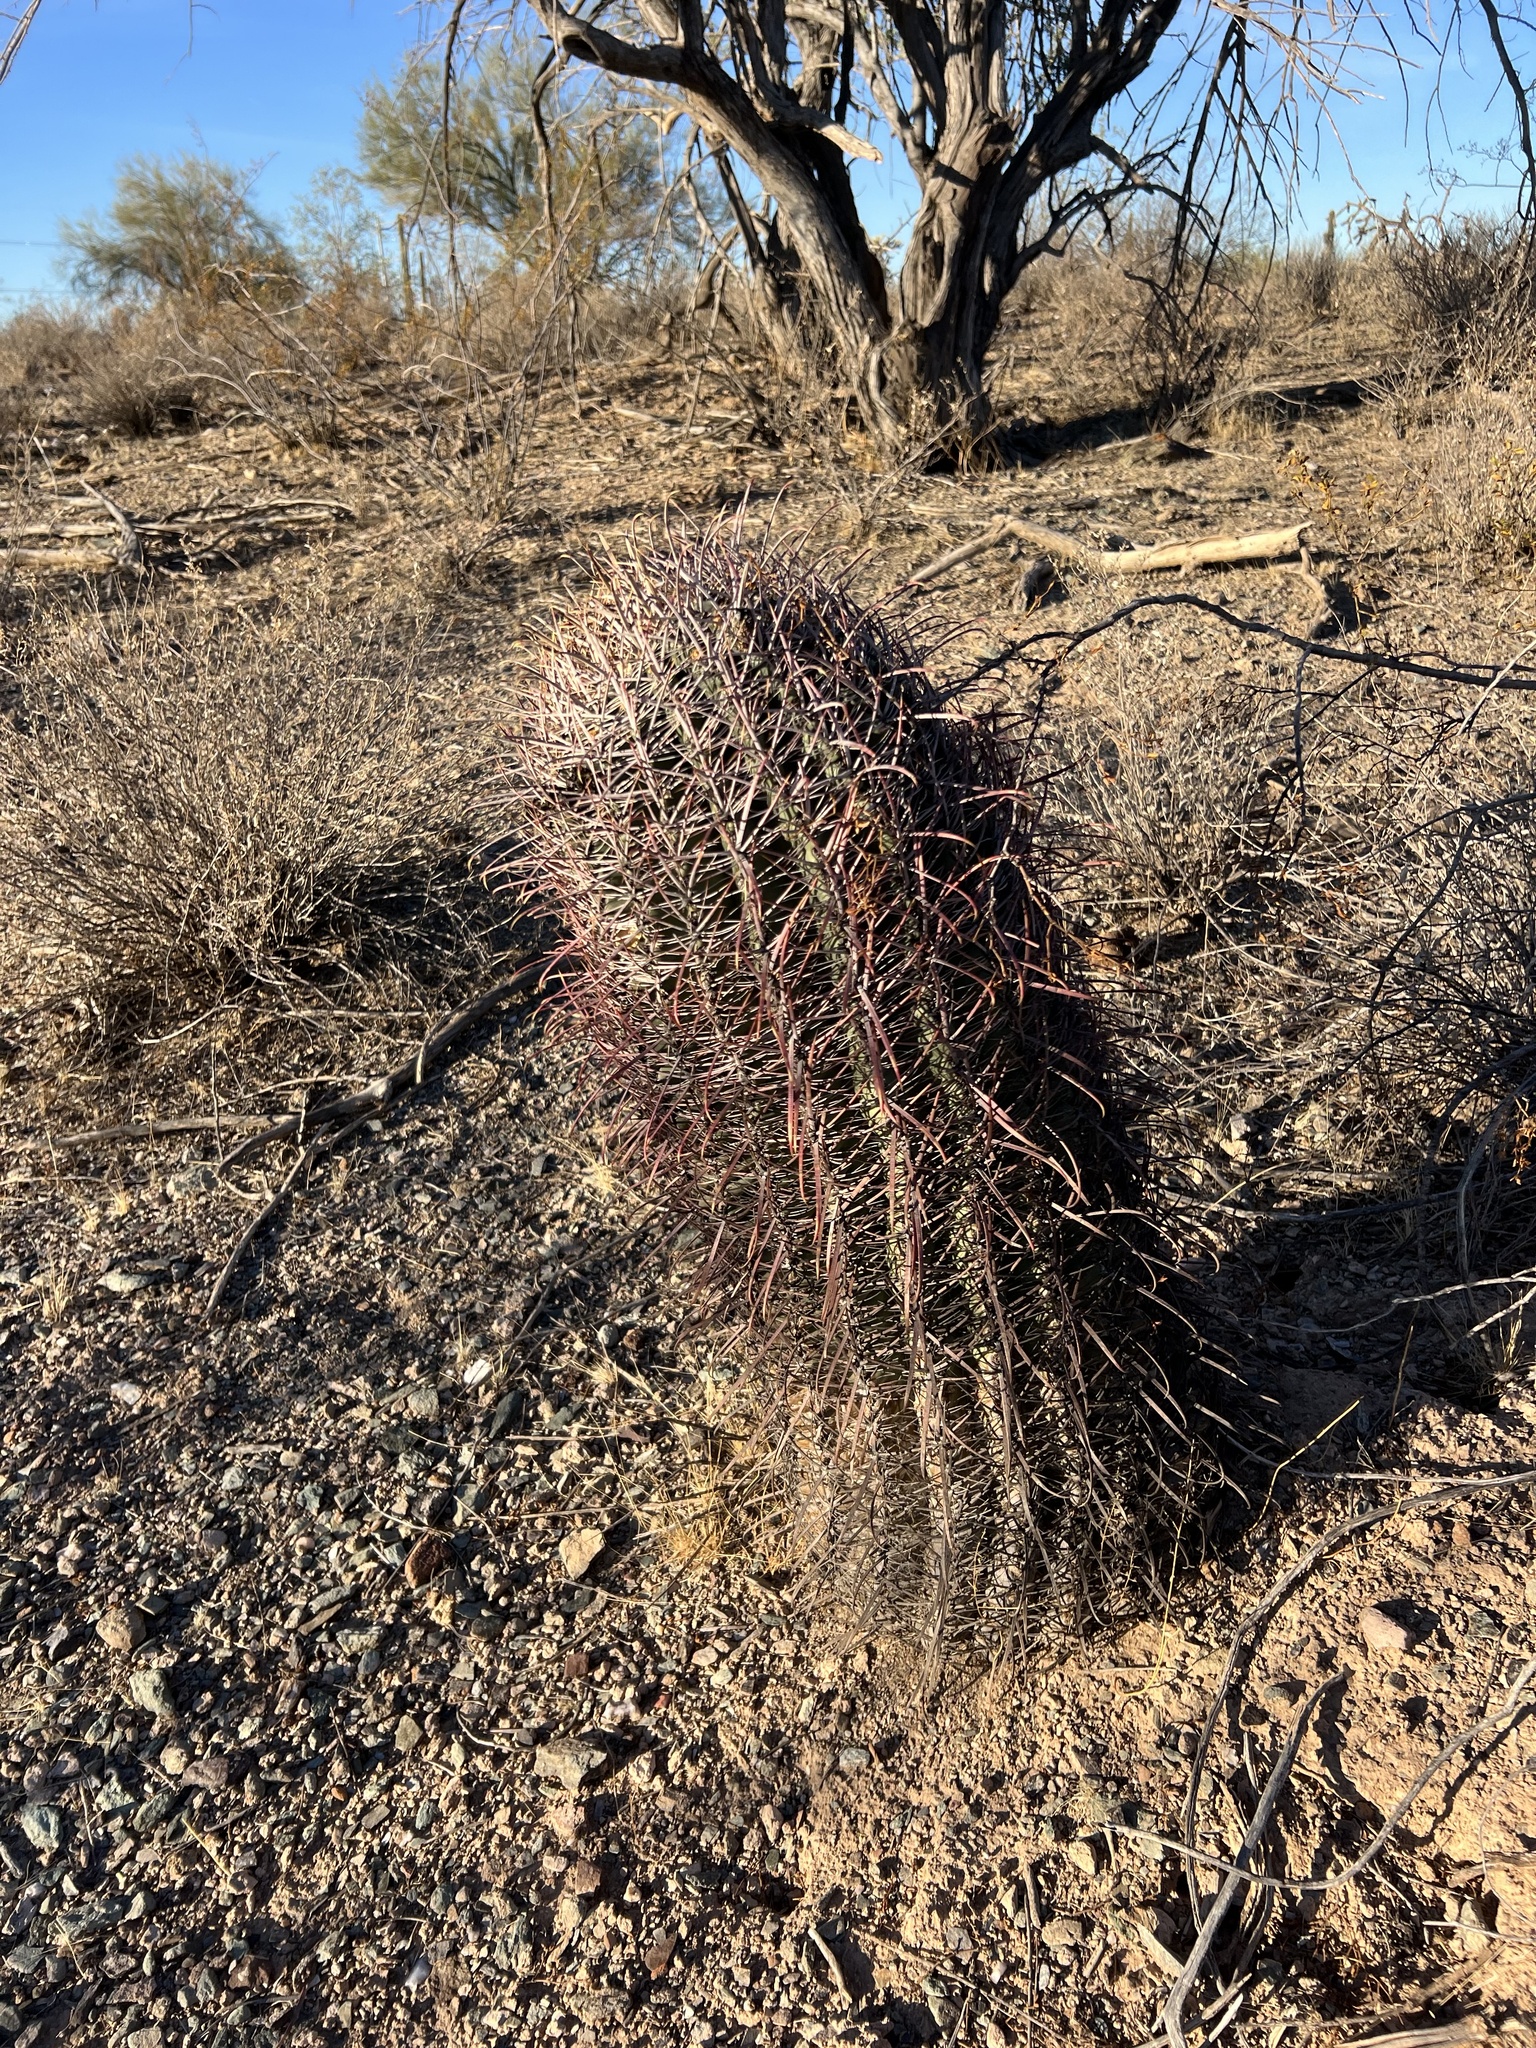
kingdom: Plantae
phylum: Tracheophyta
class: Magnoliopsida
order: Caryophyllales
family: Cactaceae
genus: Ferocactus
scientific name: Ferocactus cylindraceus
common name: California barrel cactus
